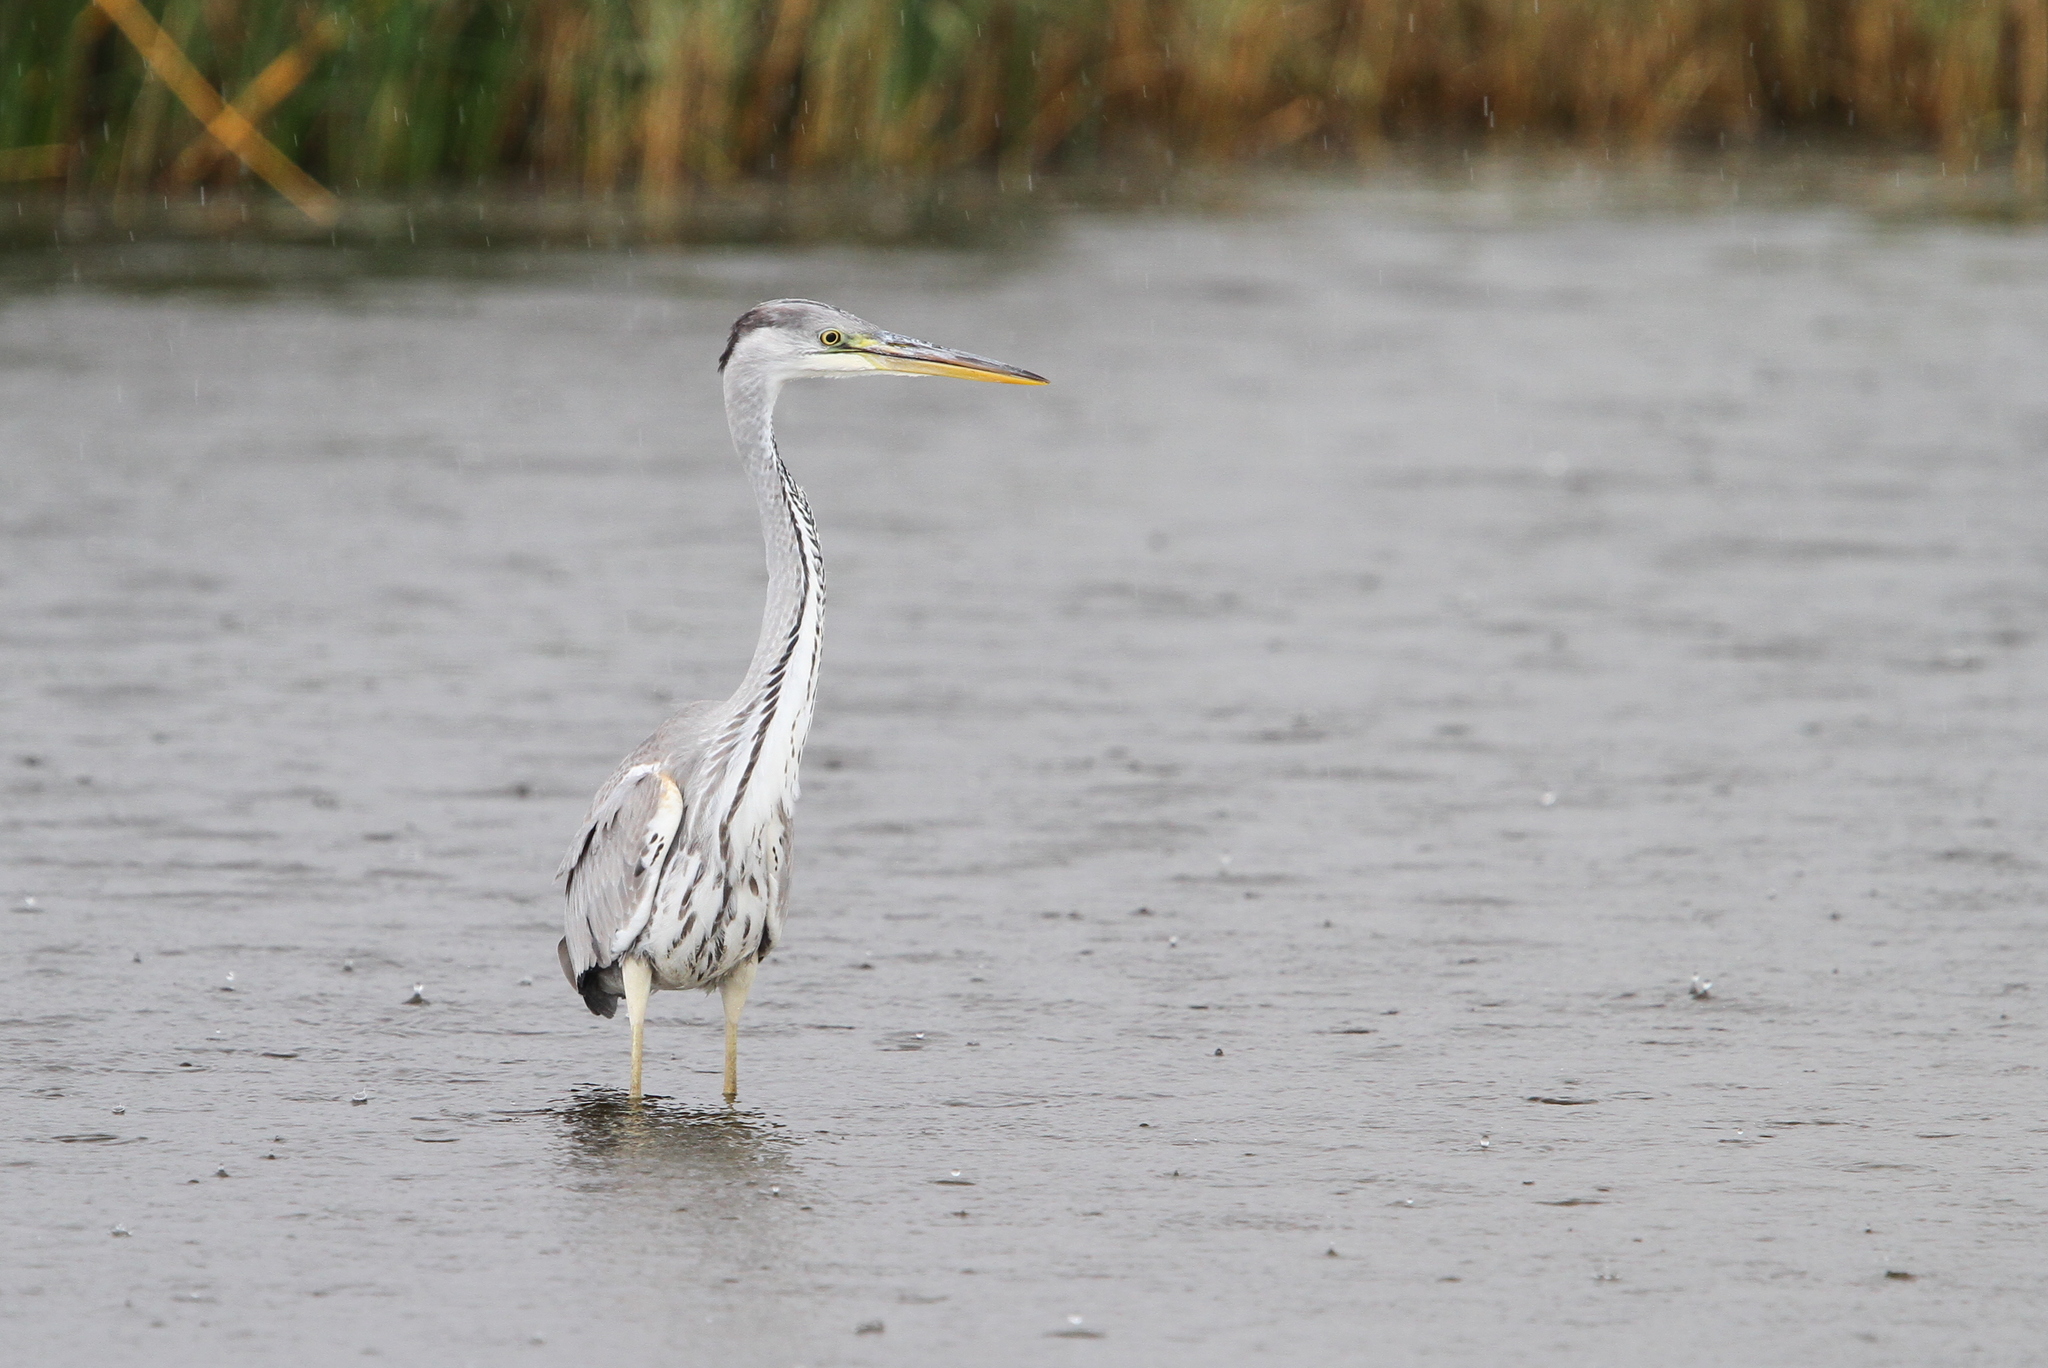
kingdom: Animalia
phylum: Chordata
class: Aves
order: Pelecaniformes
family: Ardeidae
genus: Ardea
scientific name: Ardea cinerea
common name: Grey heron
